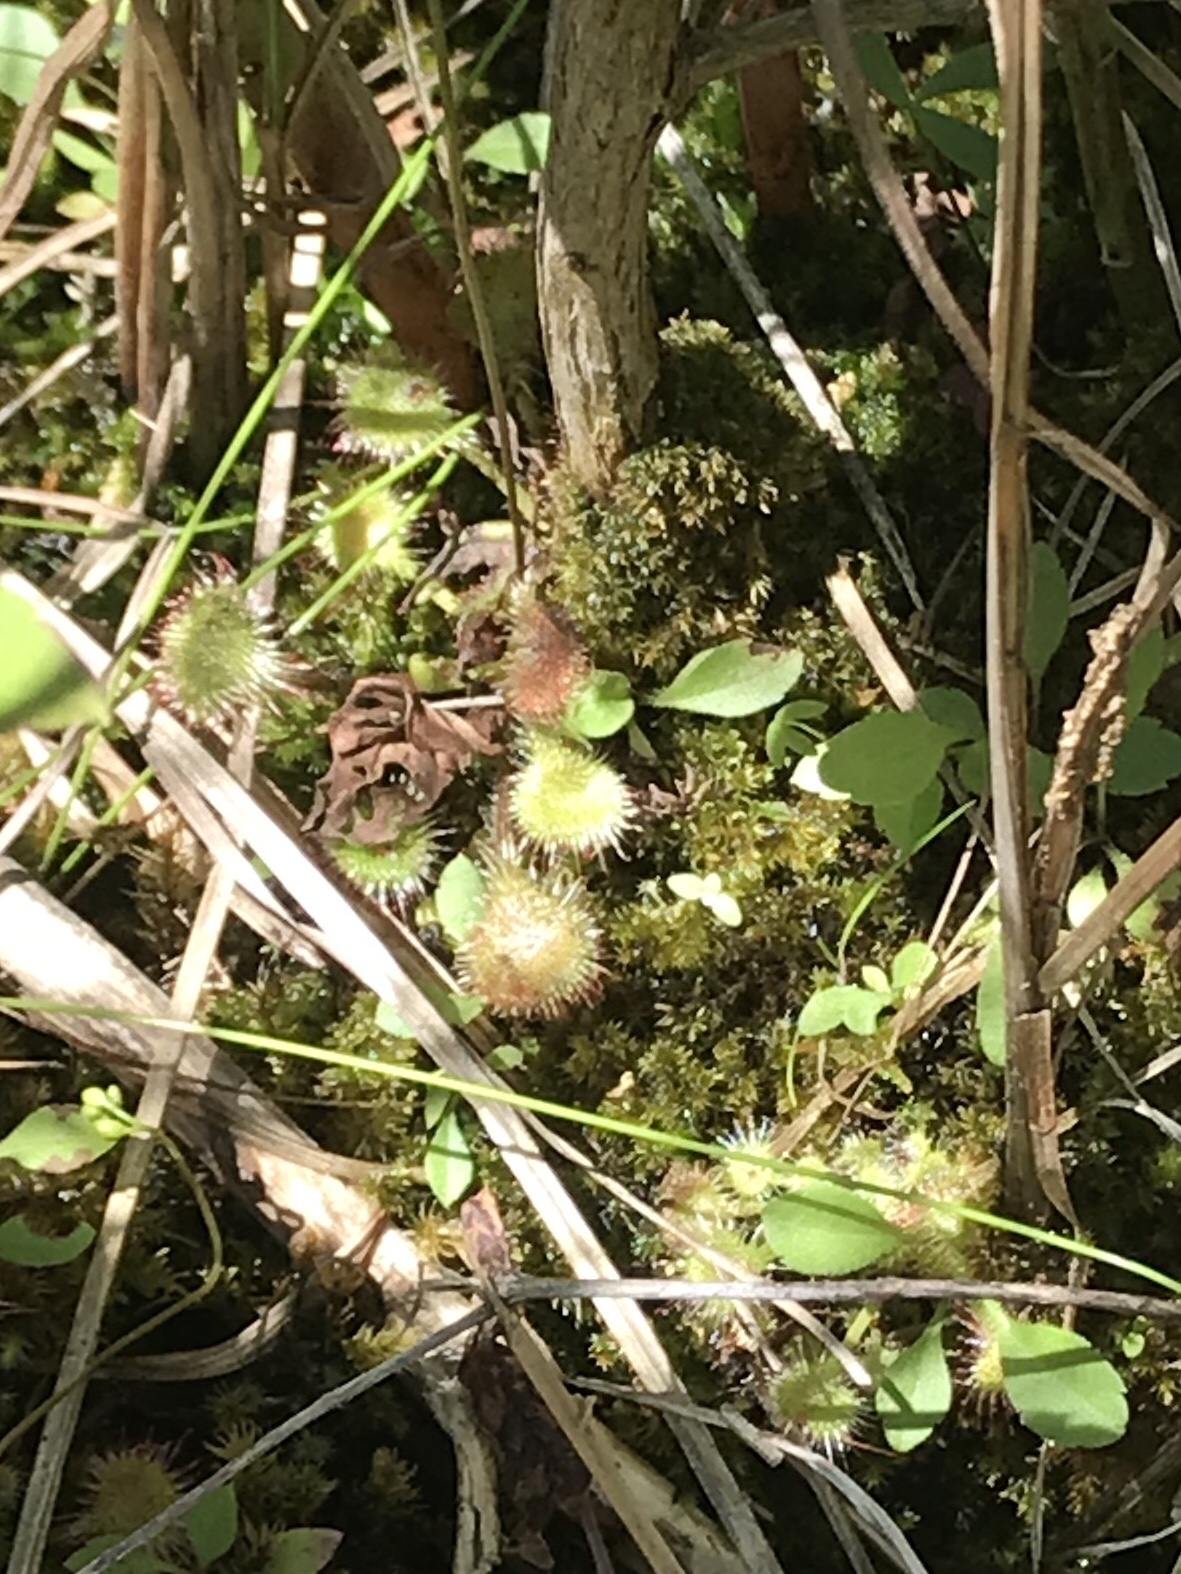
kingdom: Plantae
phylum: Tracheophyta
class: Magnoliopsida
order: Caryophyllales
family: Droseraceae
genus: Drosera
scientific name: Drosera rotundifolia
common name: Round-leaved sundew
